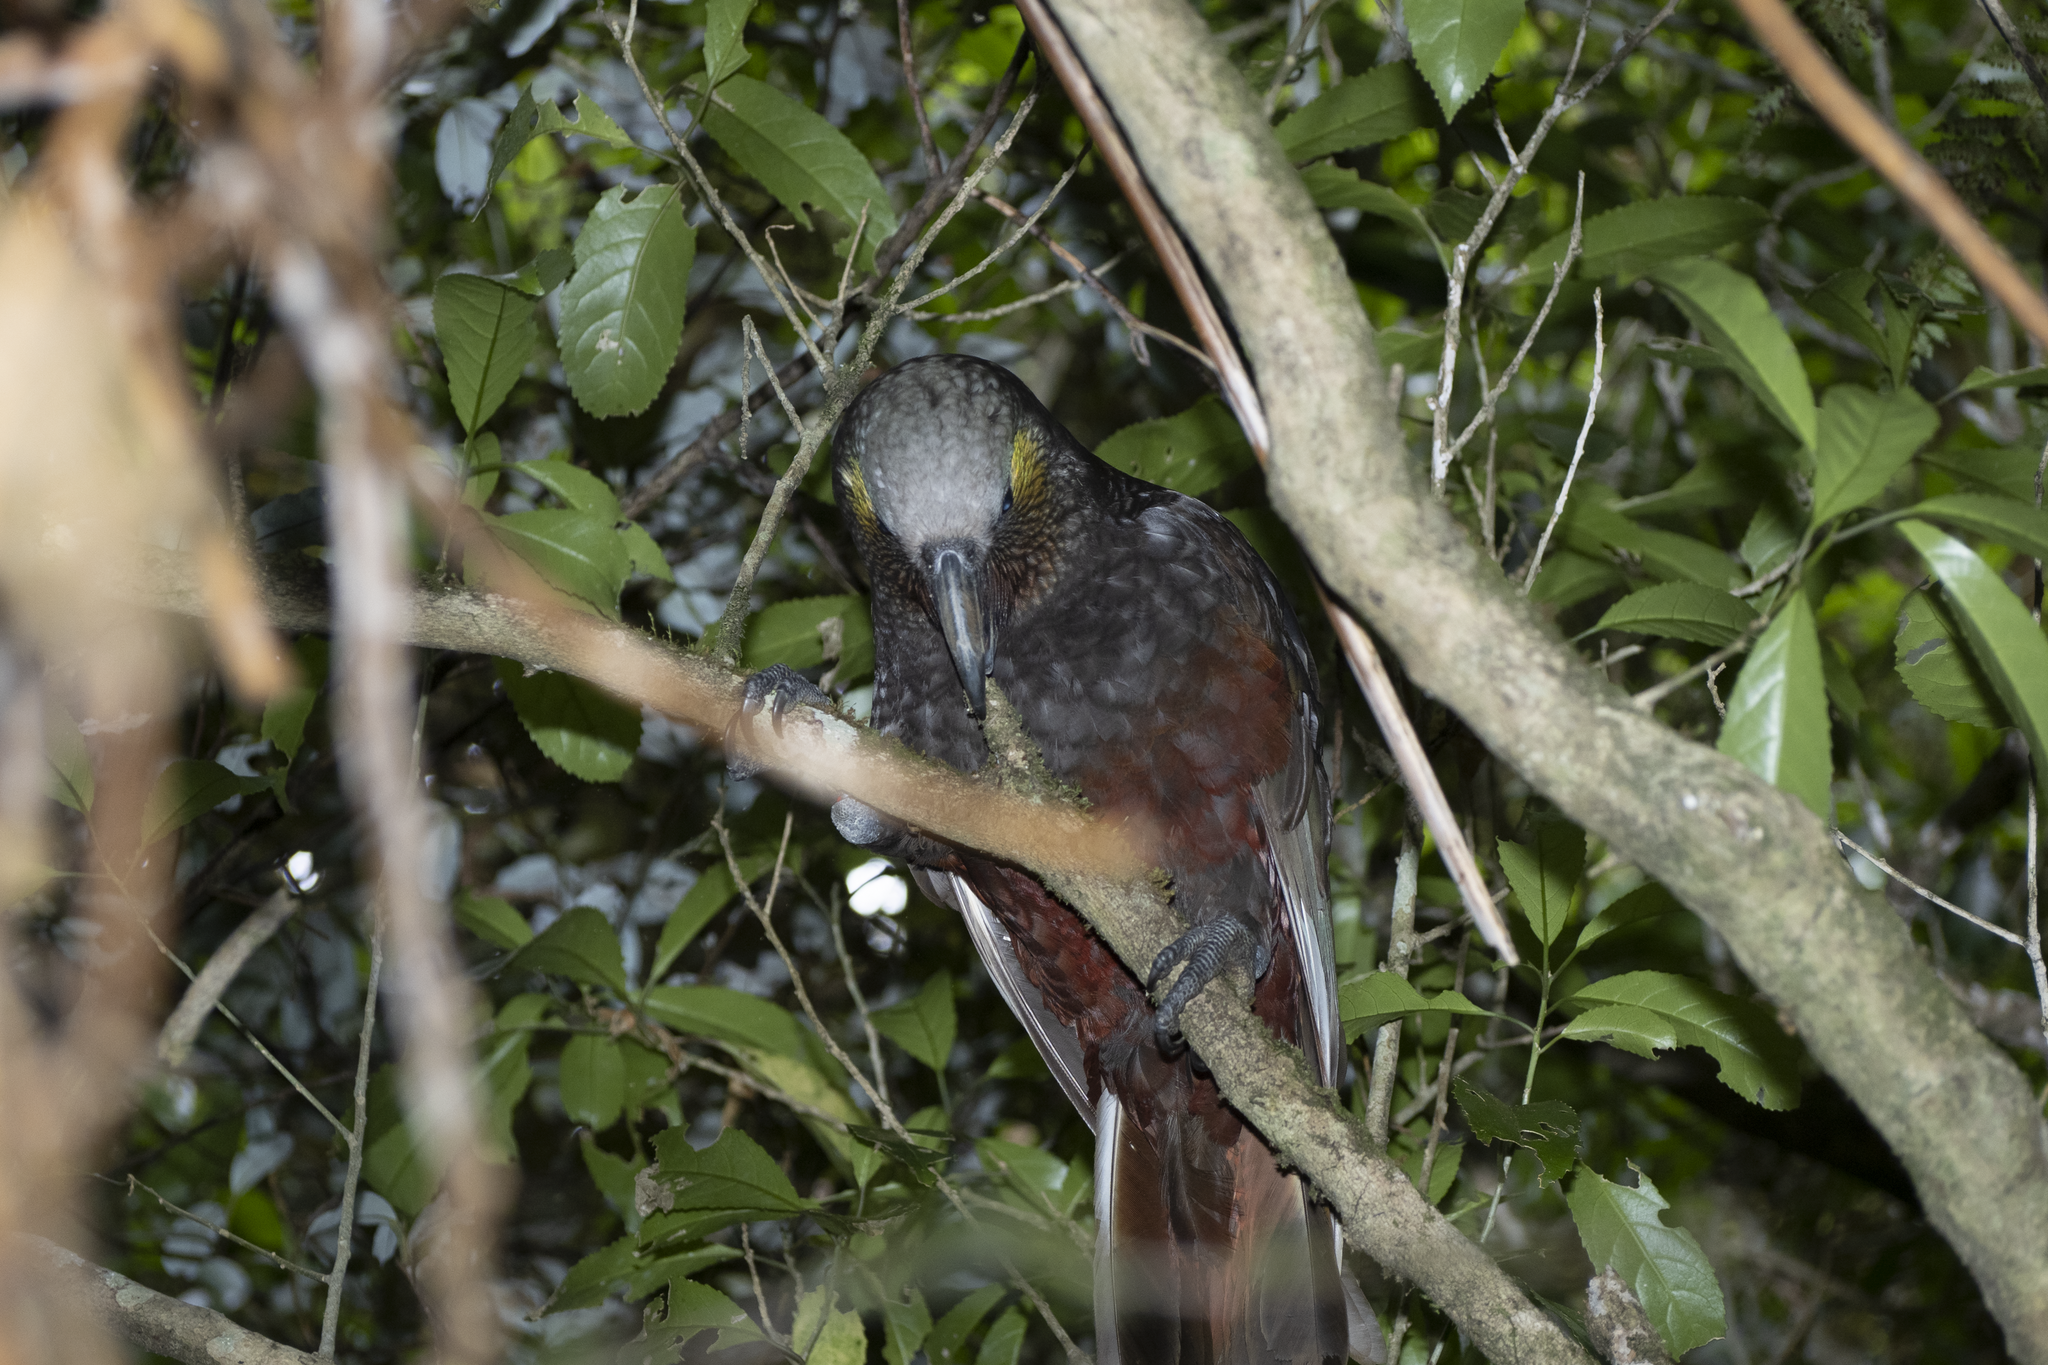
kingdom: Animalia
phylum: Chordata
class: Aves
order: Psittaciformes
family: Psittacidae
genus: Nestor
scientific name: Nestor meridionalis
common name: New zealand kaka
